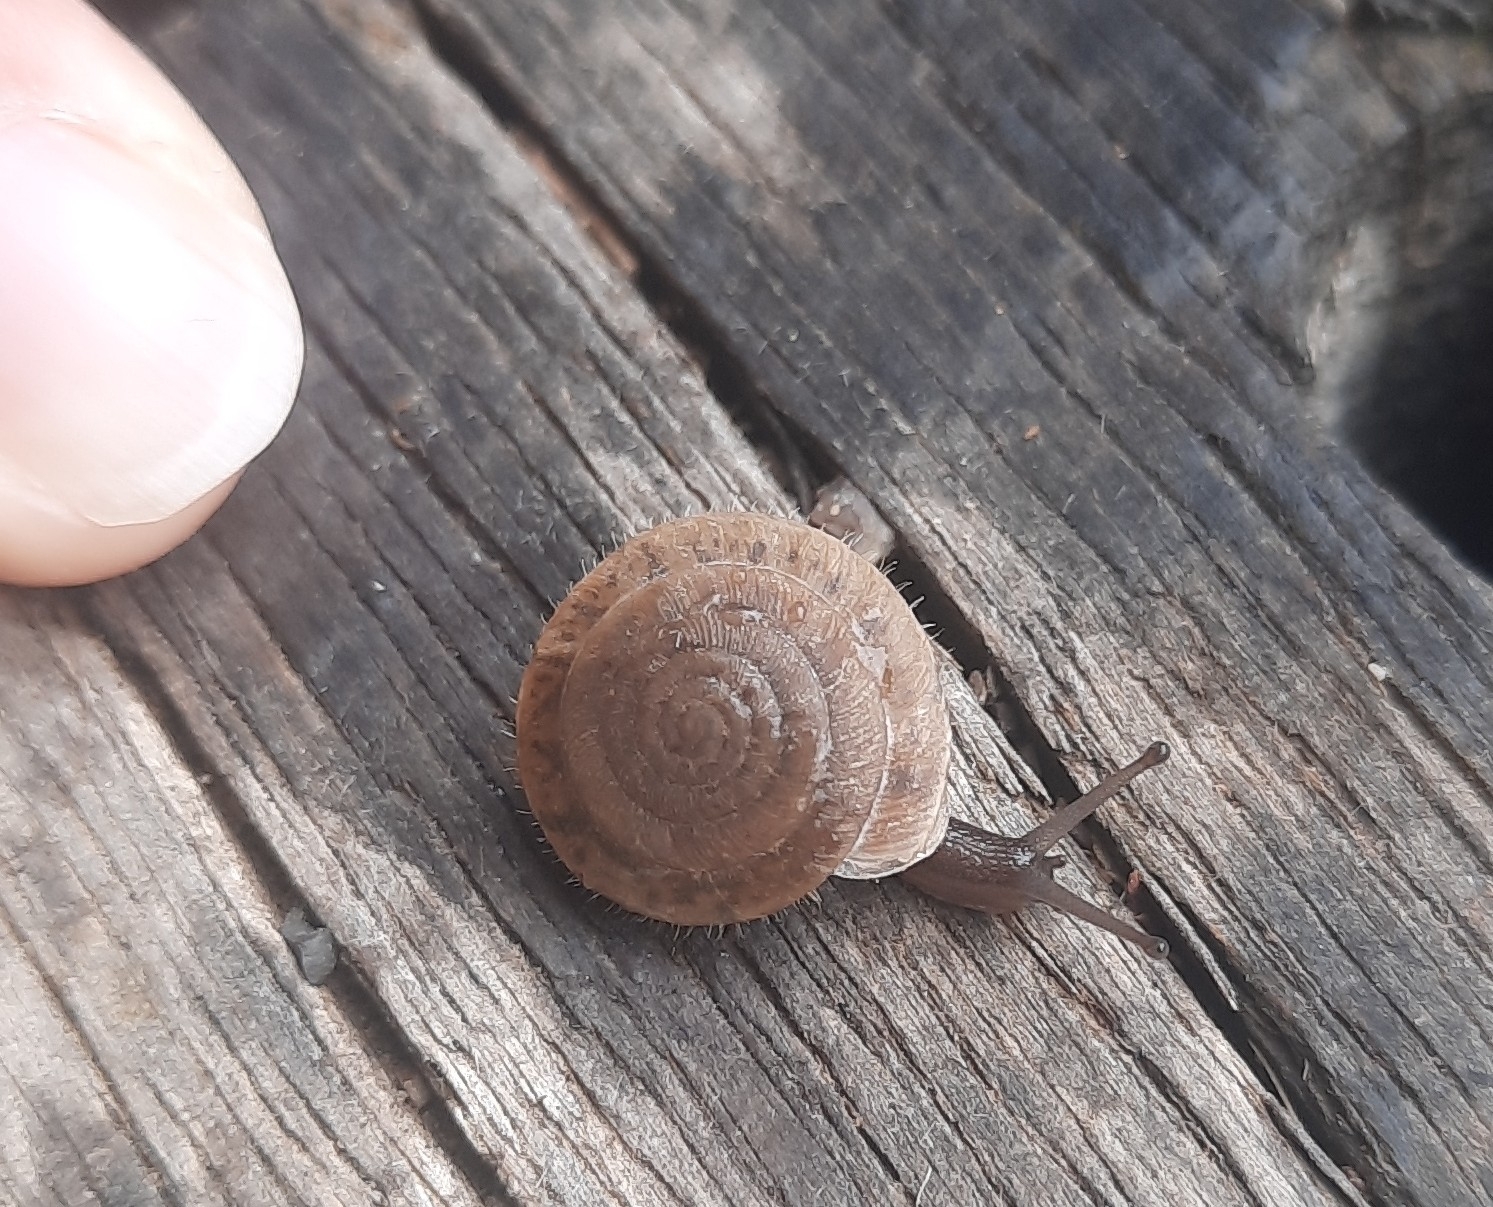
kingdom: Animalia
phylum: Mollusca
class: Gastropoda
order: Stylommatophora
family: Helicodontidae
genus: Lindholmiola
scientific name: Lindholmiola lens
